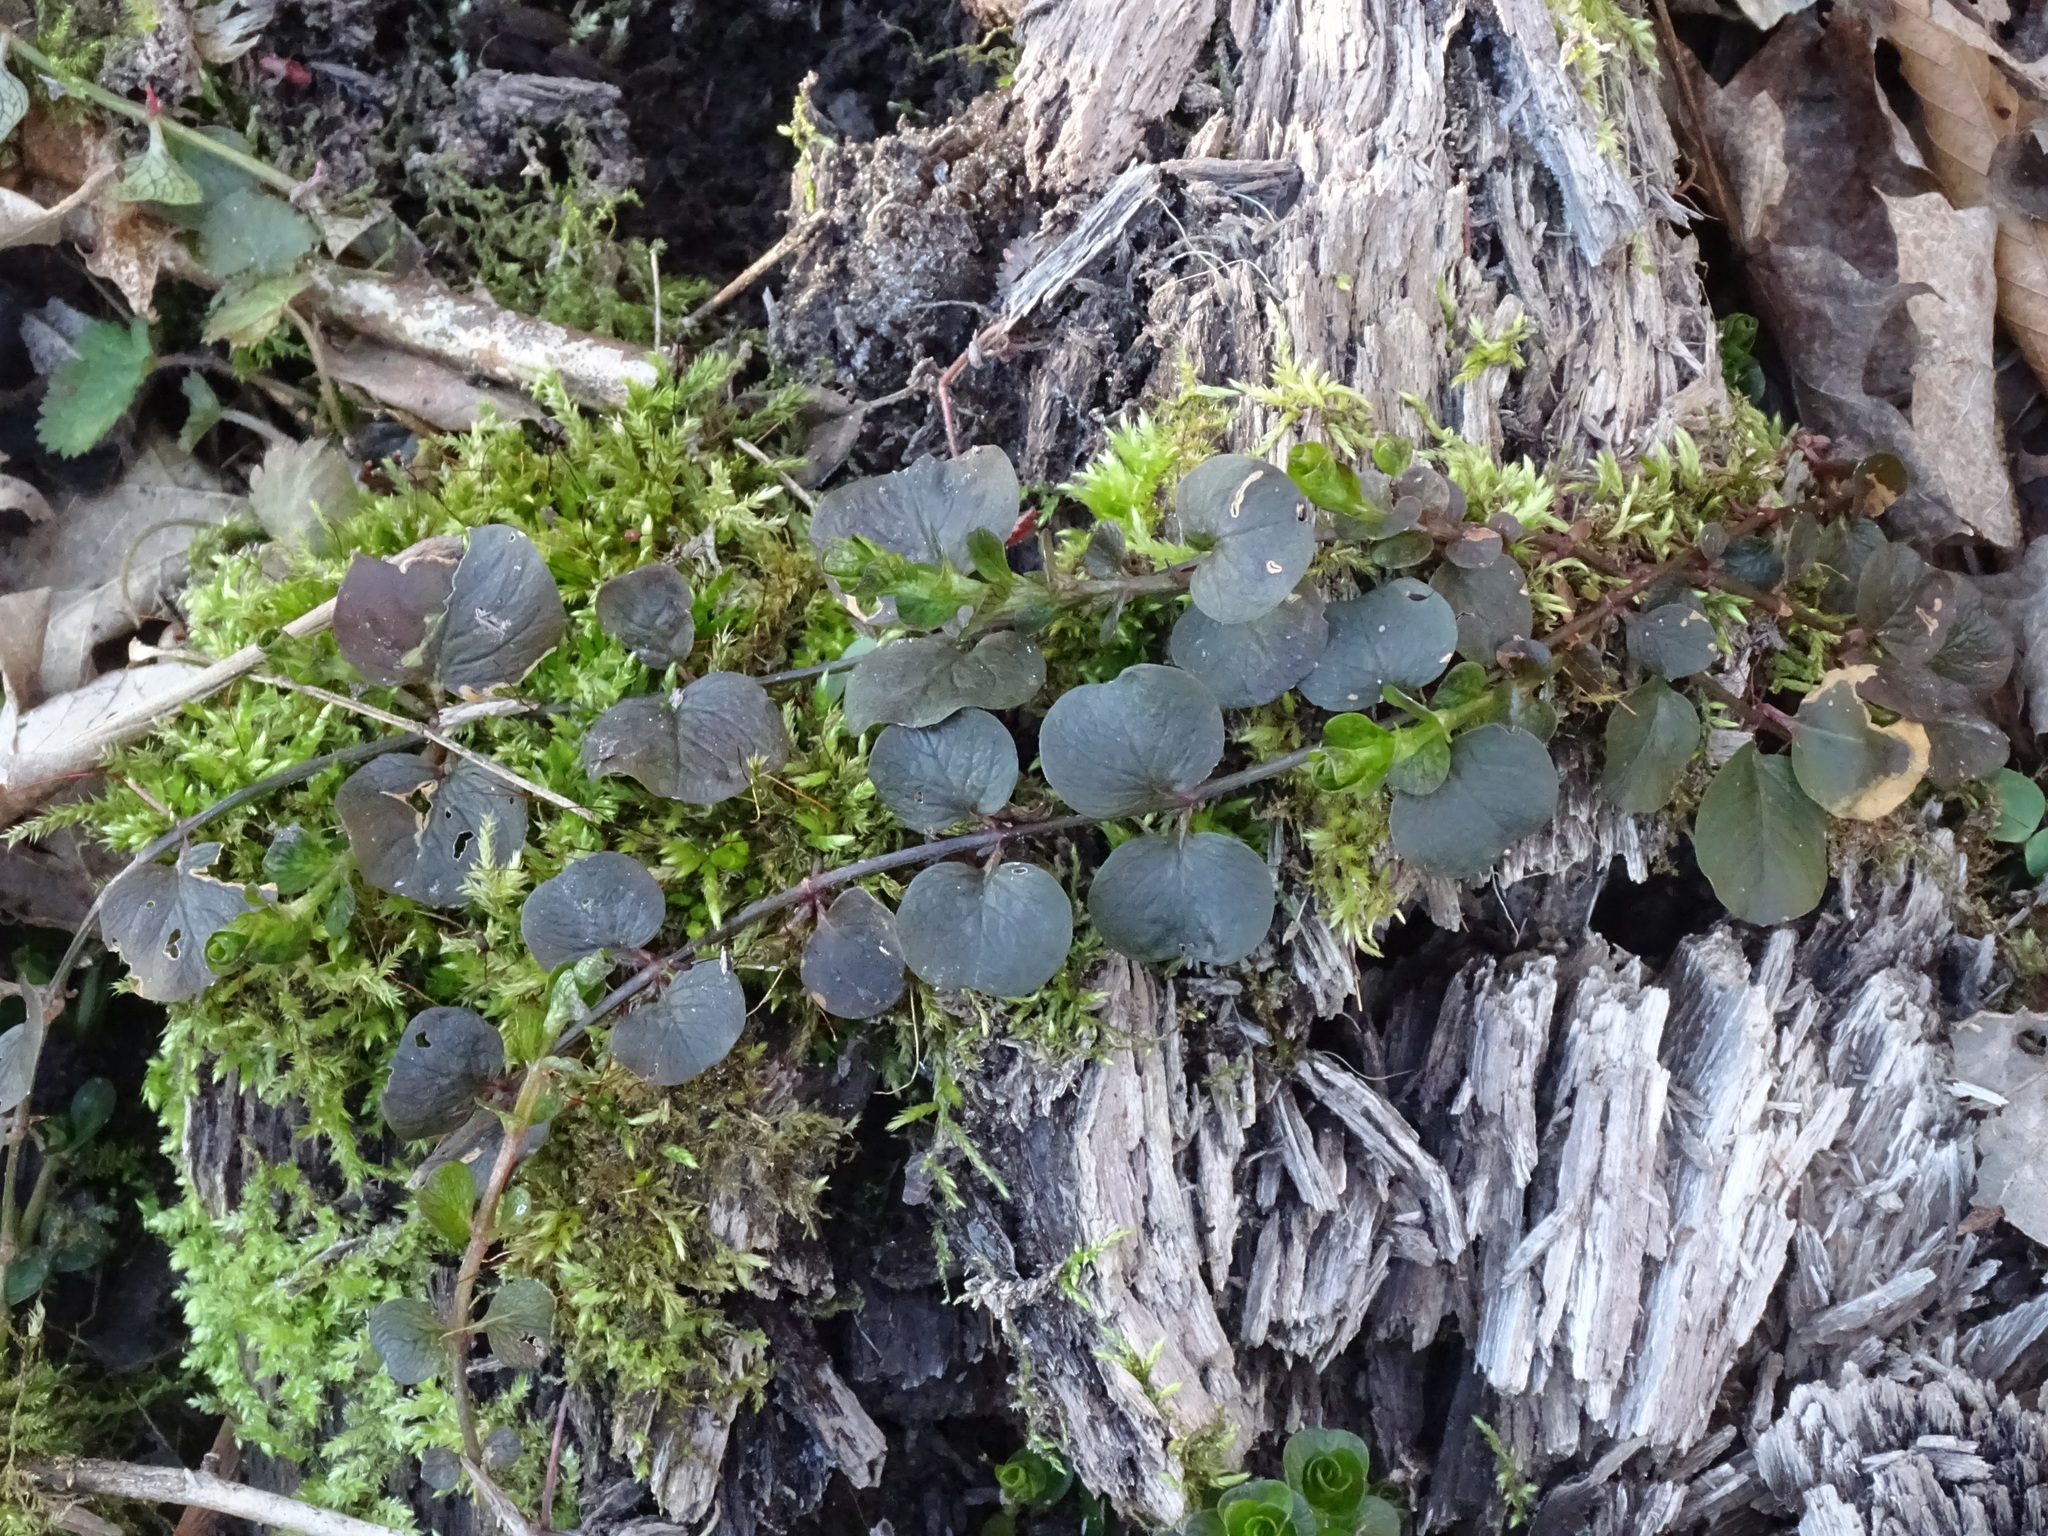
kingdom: Plantae
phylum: Tracheophyta
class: Magnoliopsida
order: Ericales
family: Primulaceae
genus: Lysimachia
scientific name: Lysimachia nummularia
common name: Moneywort
